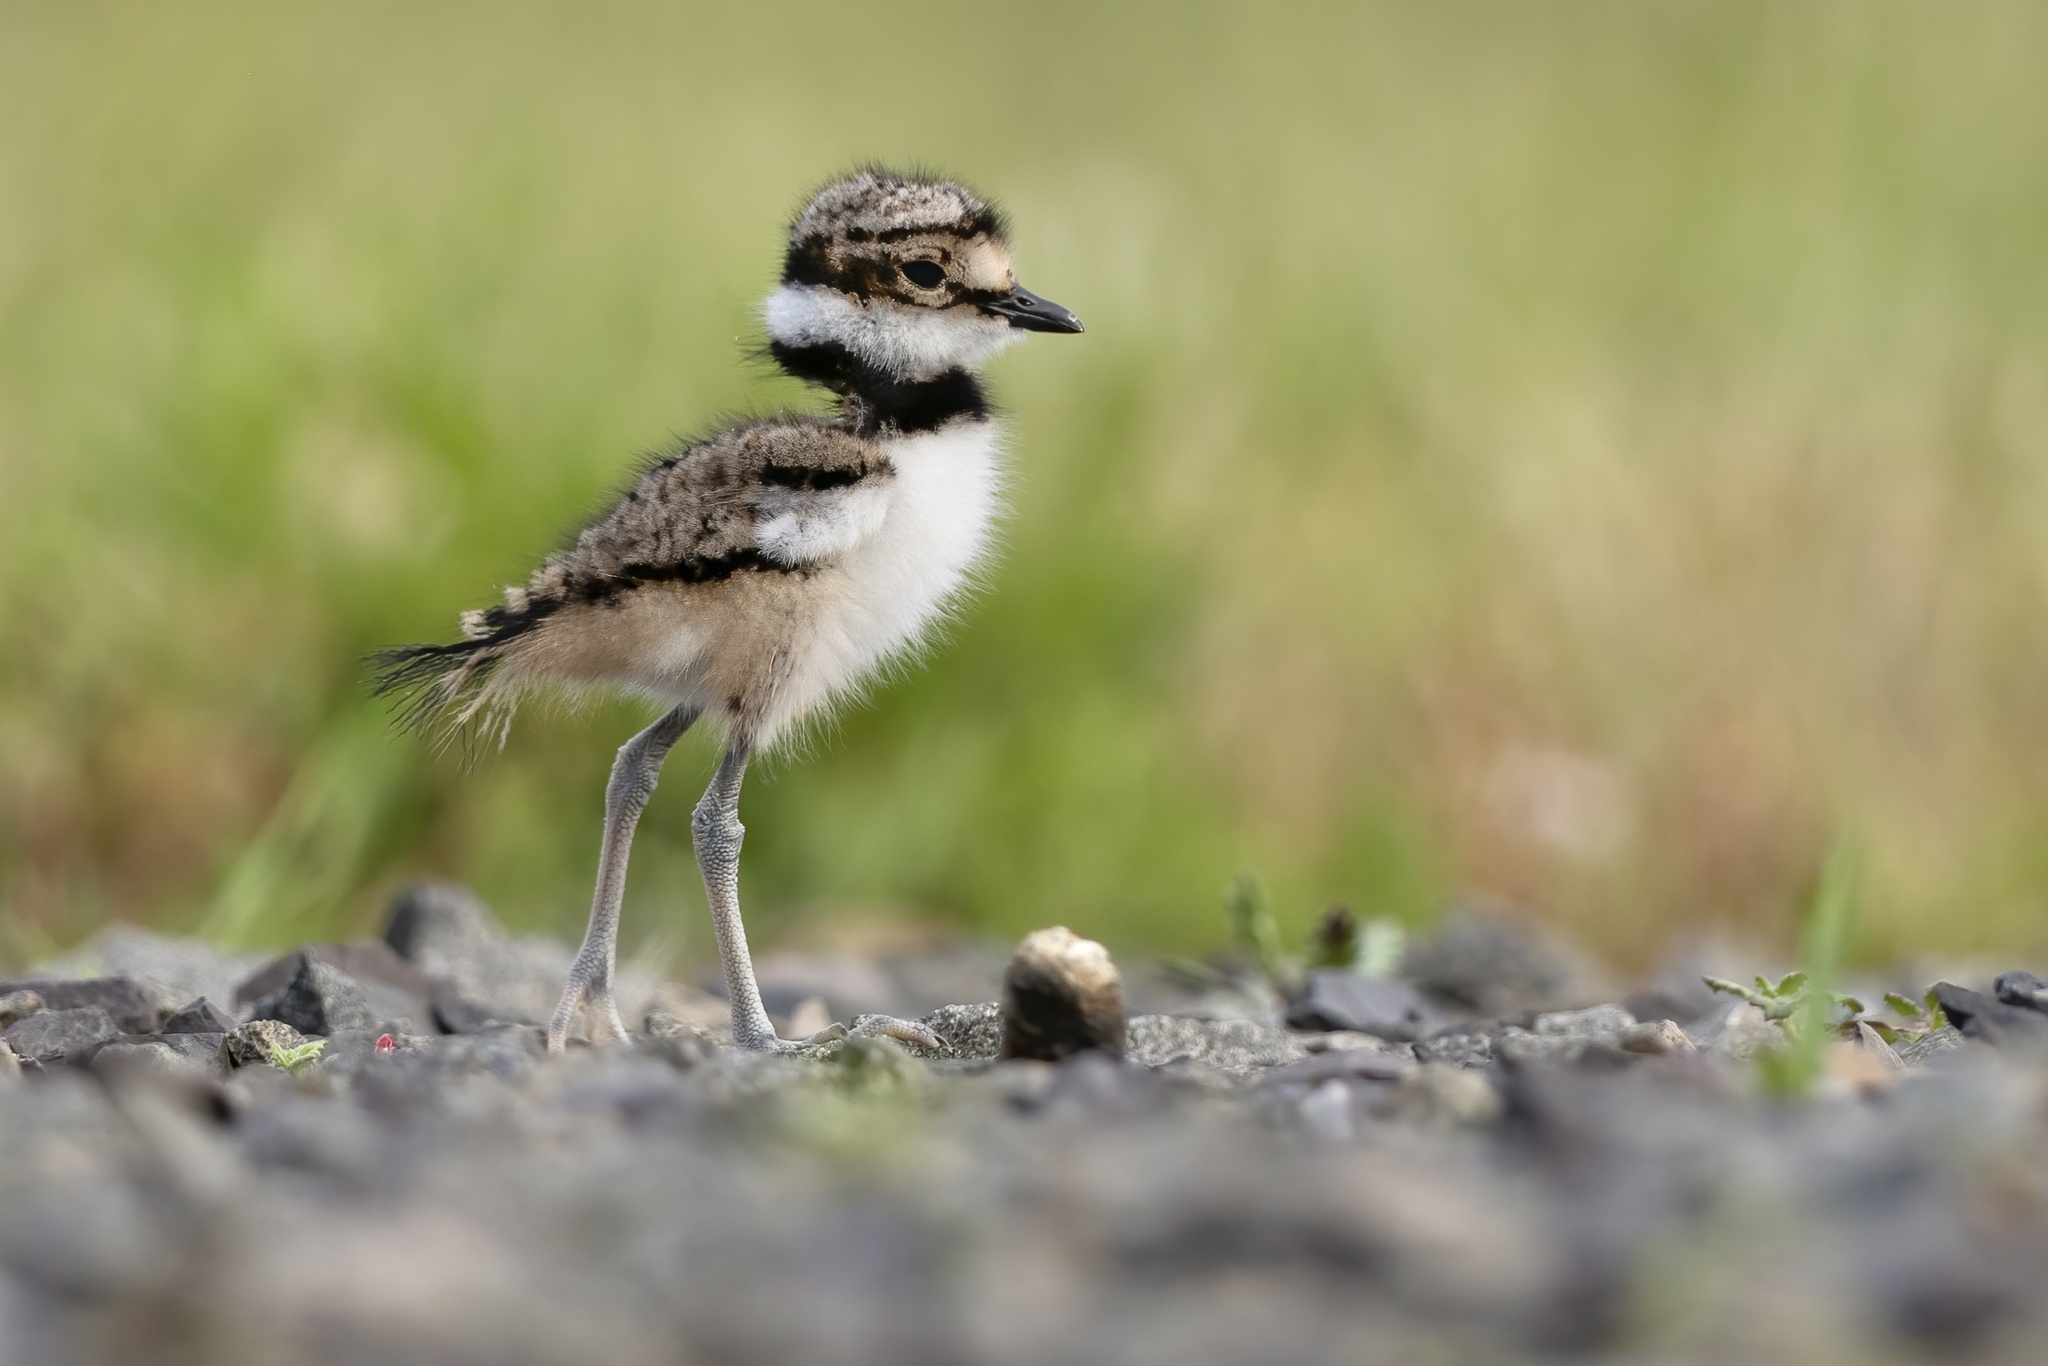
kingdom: Animalia
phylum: Chordata
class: Aves
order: Charadriiformes
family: Charadriidae
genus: Charadrius
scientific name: Charadrius vociferus
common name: Killdeer
